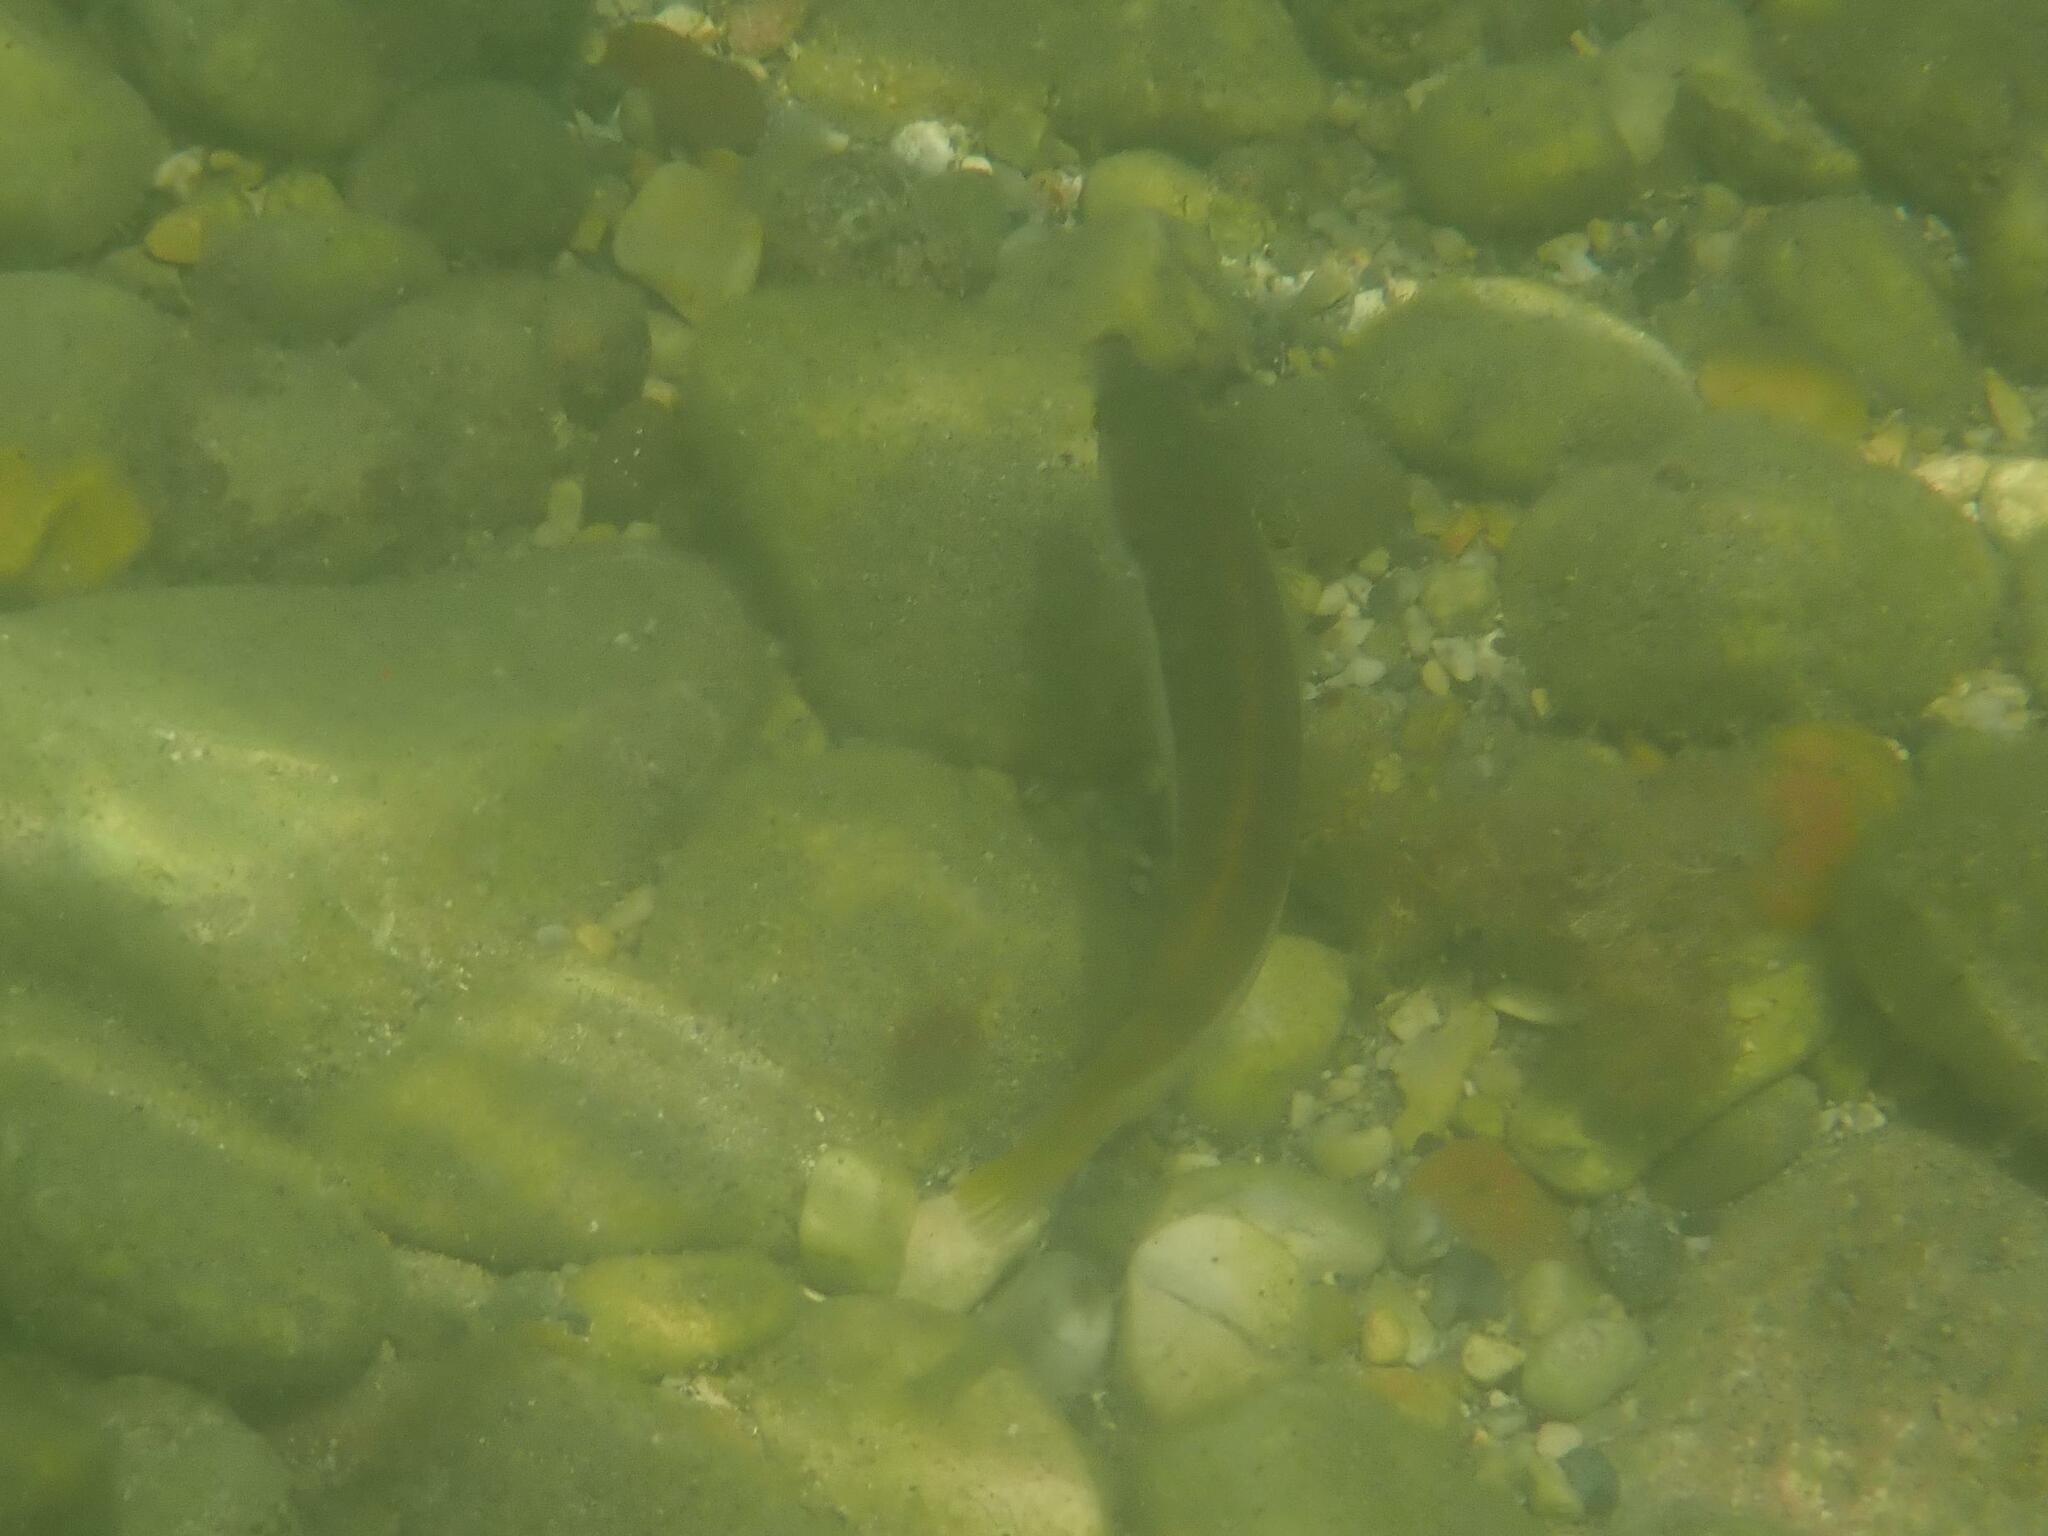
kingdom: Animalia
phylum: Chordata
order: Perciformes
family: Labridae
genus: Coris
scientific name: Coris julis
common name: Rainbow wrasse
